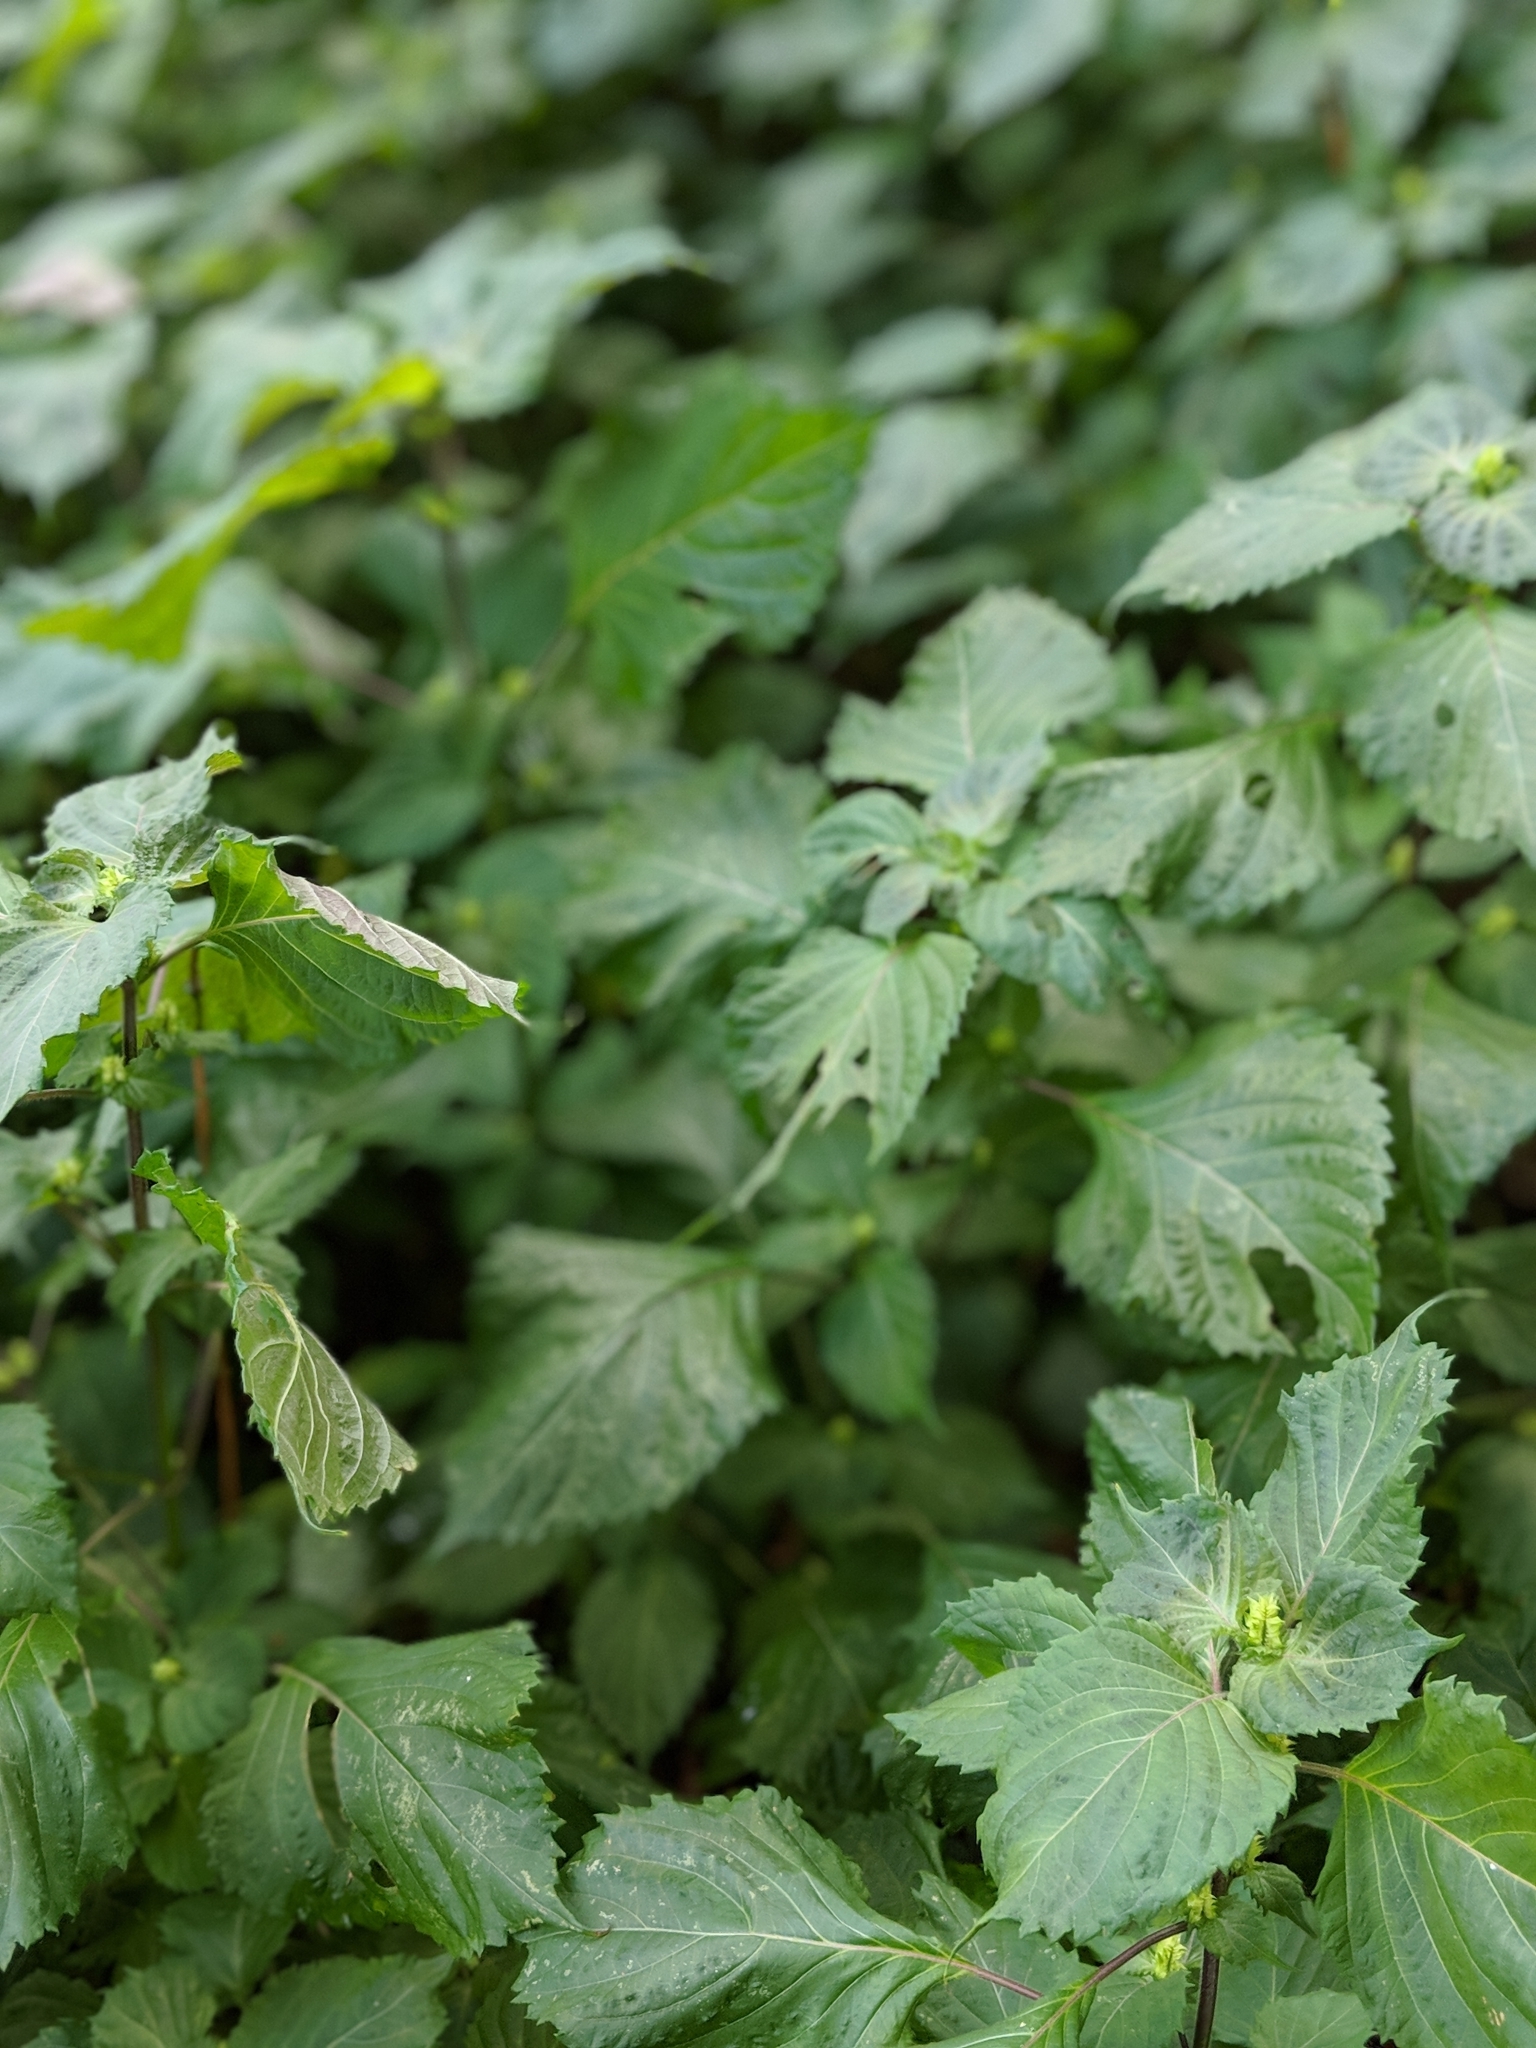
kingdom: Plantae
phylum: Tracheophyta
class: Magnoliopsida
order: Lamiales
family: Lamiaceae
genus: Perilla
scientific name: Perilla frutescens
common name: Perilla
